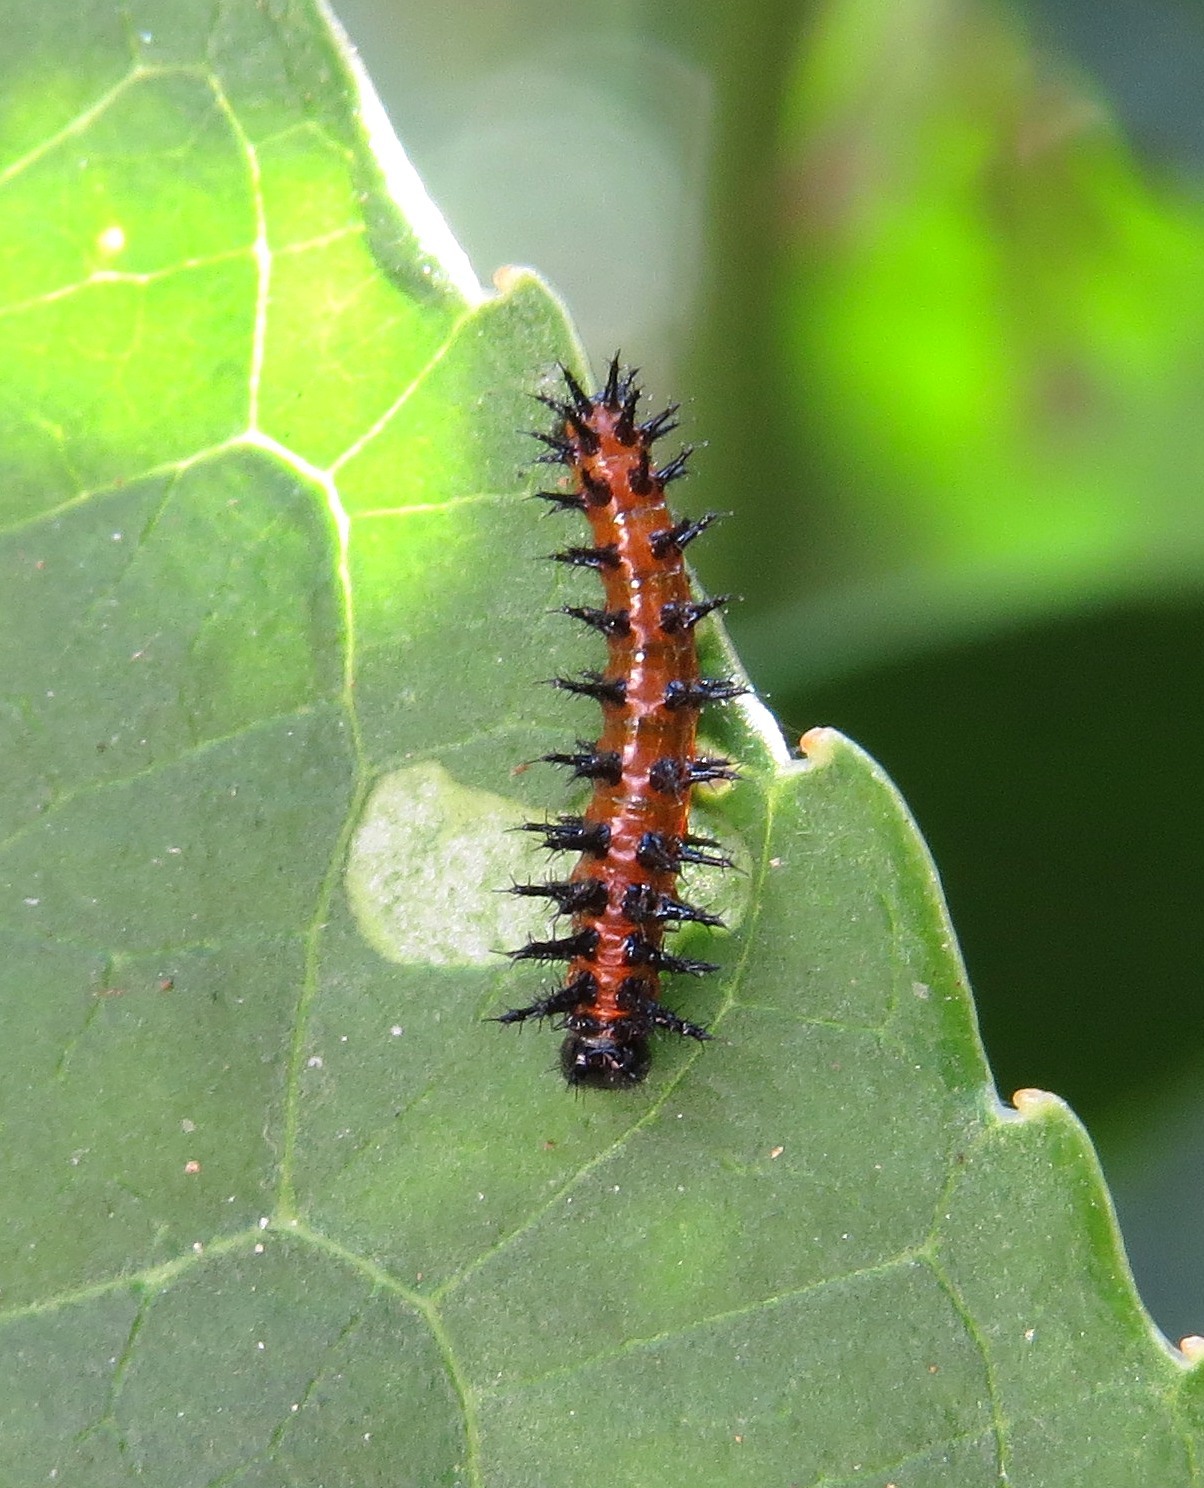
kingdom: Animalia
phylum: Arthropoda
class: Insecta
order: Lepidoptera
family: Nymphalidae
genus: Dione
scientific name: Dione vanillae
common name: Gulf fritillary
